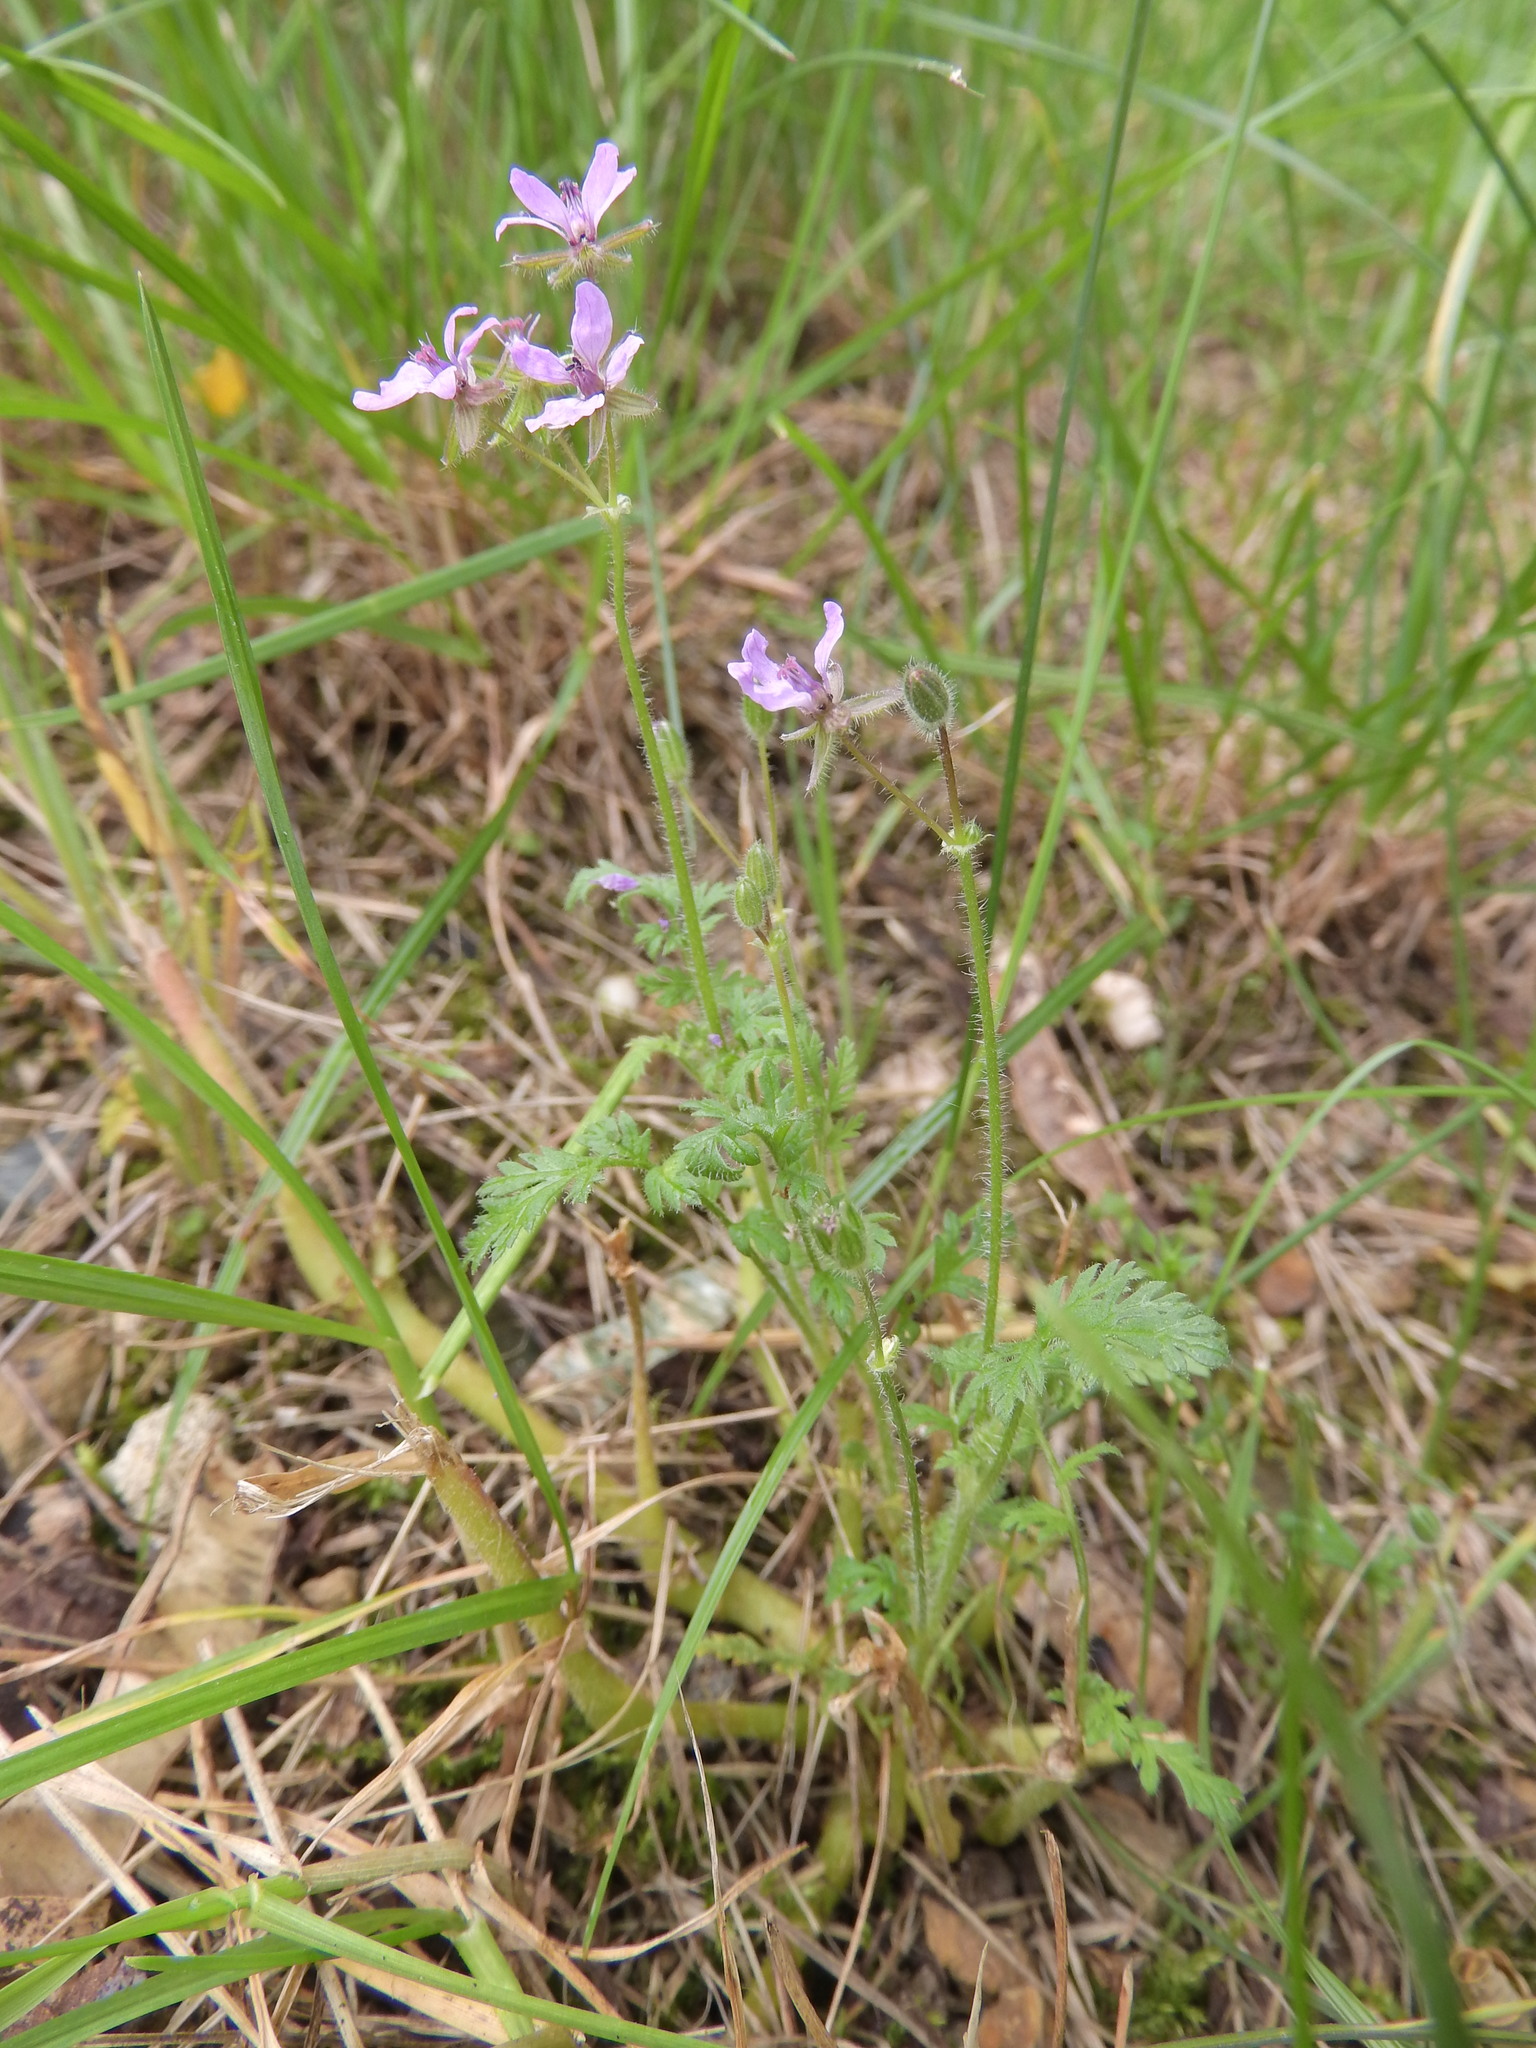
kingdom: Plantae
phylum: Tracheophyta
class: Magnoliopsida
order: Geraniales
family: Geraniaceae
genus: Erodium
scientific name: Erodium cicutarium
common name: Common stork's-bill
